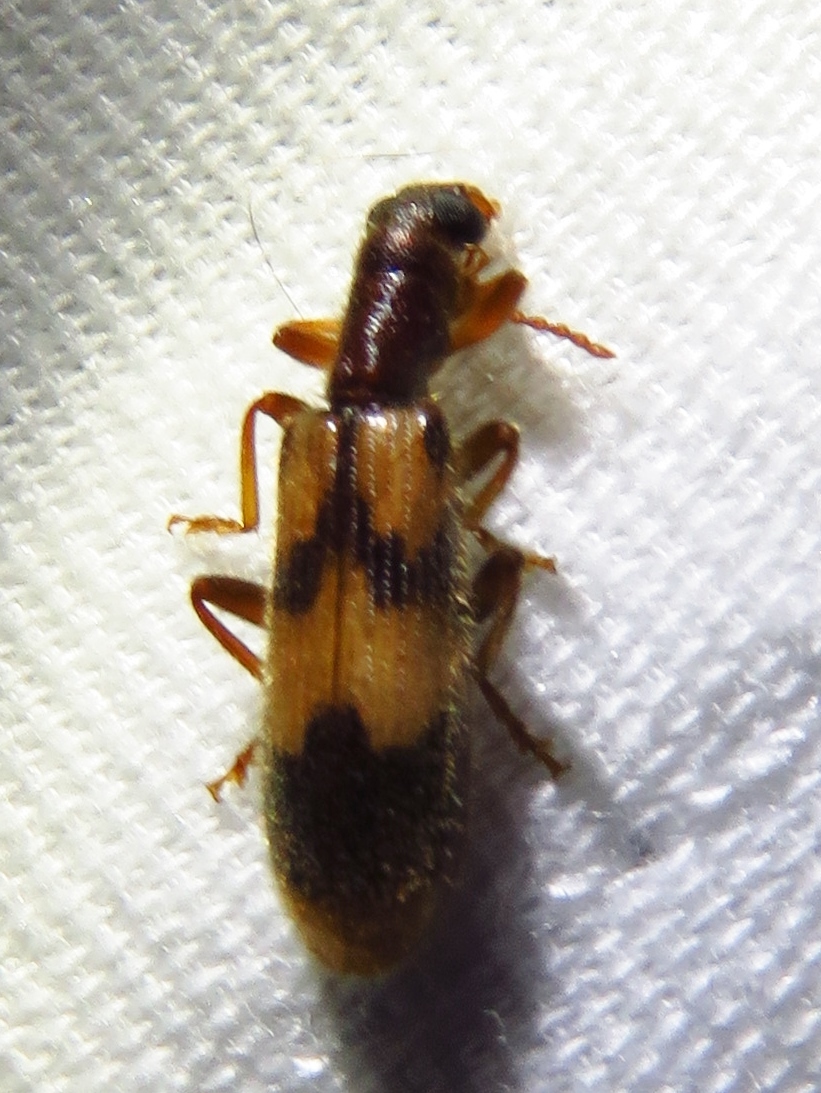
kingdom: Animalia
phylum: Arthropoda
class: Insecta
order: Coleoptera
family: Cleridae
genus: Cymatodera
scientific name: Cymatodera sirpata
